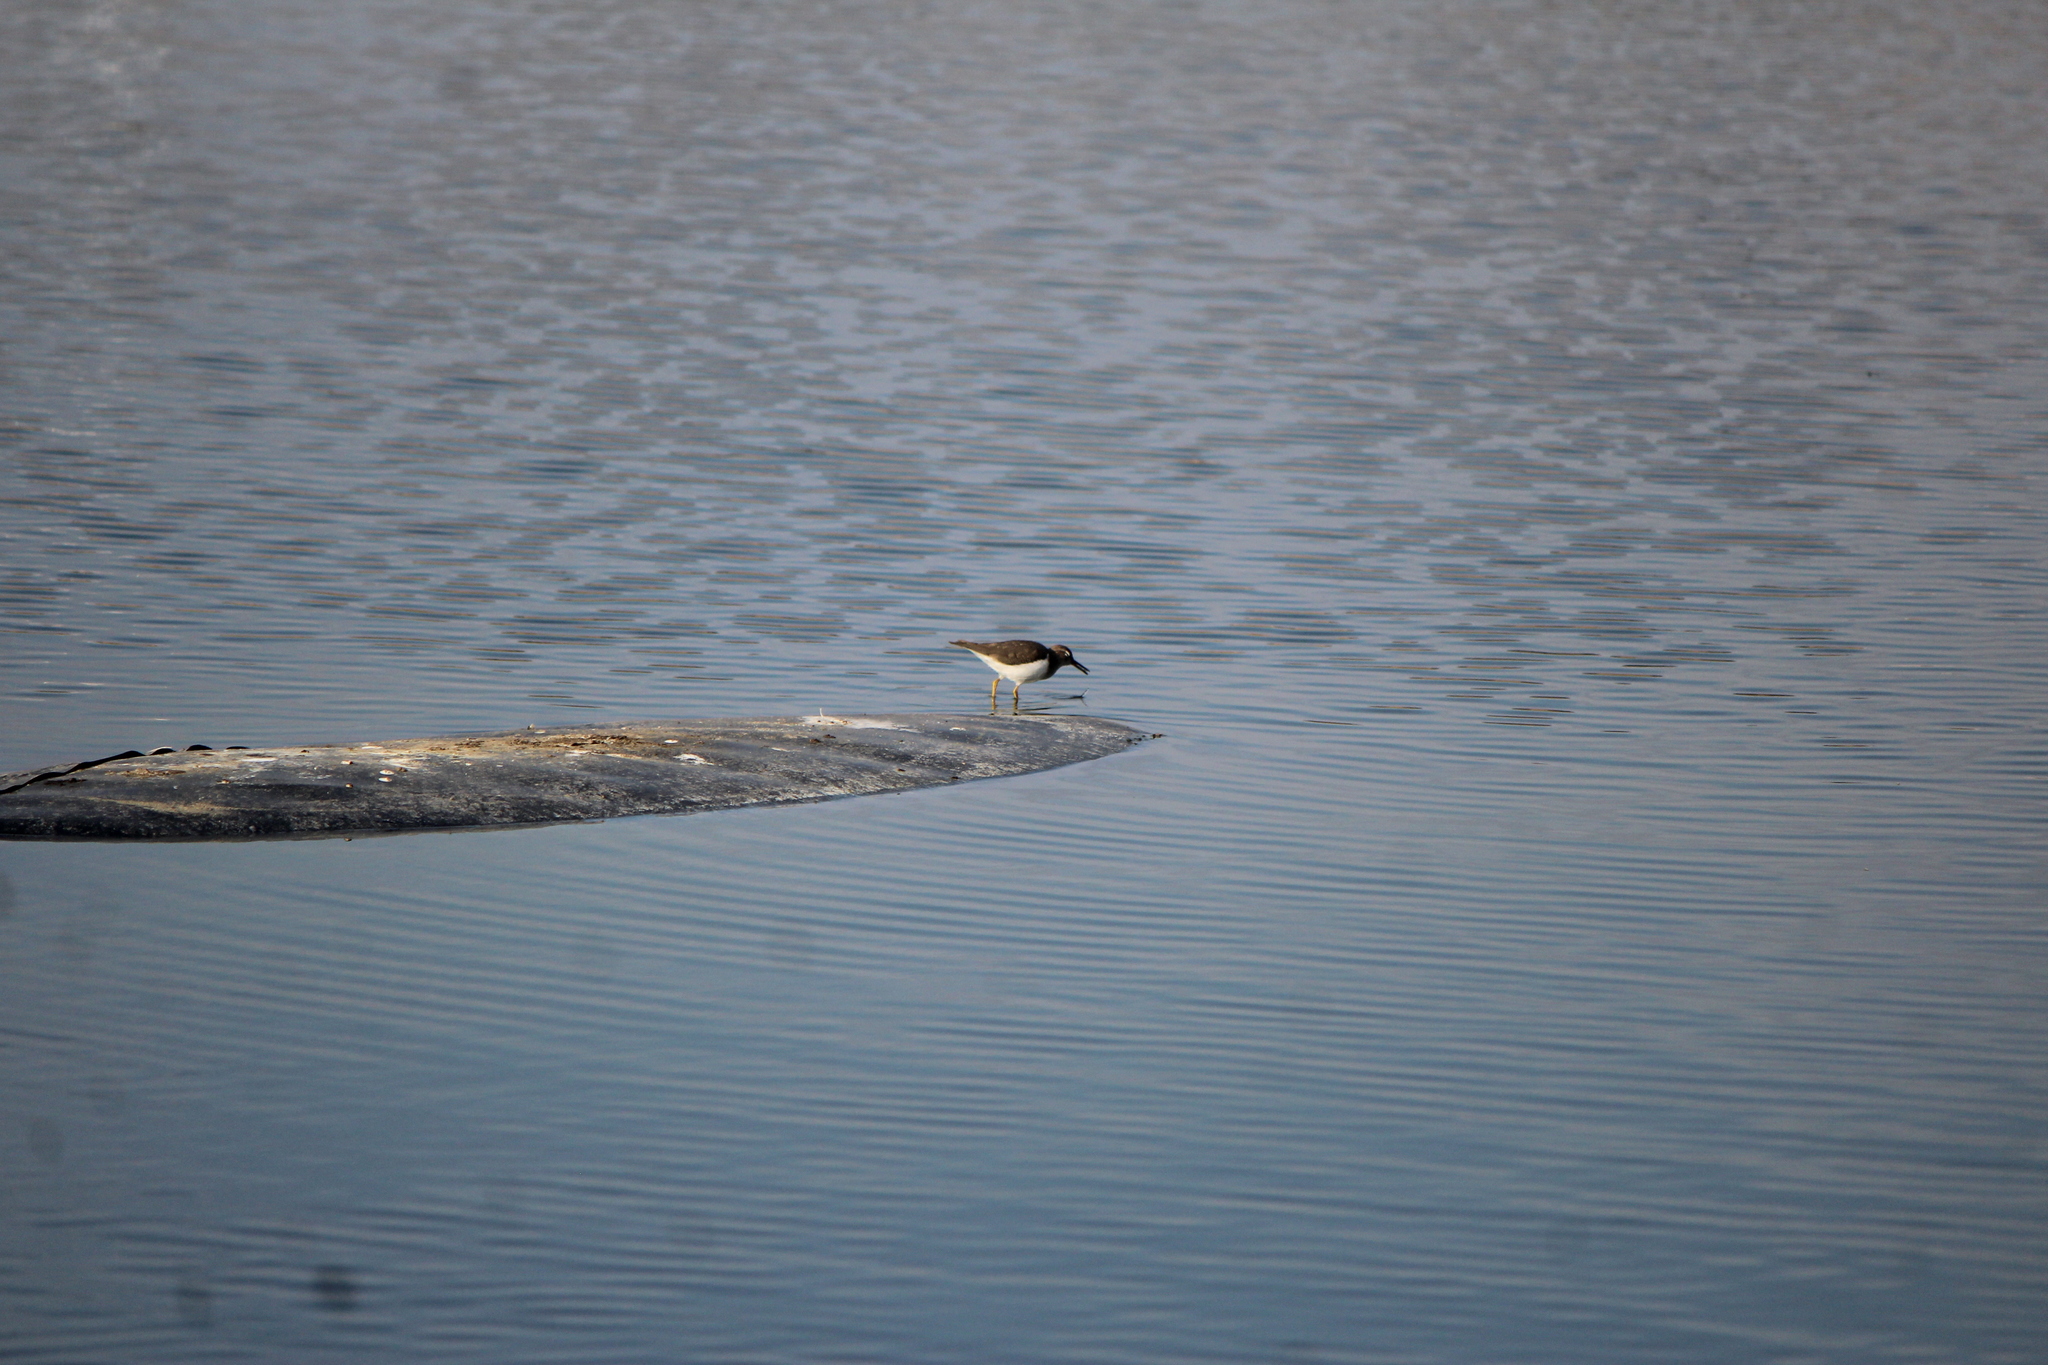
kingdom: Animalia
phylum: Chordata
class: Aves
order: Charadriiformes
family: Scolopacidae
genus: Actitis
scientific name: Actitis macularius
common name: Spotted sandpiper
